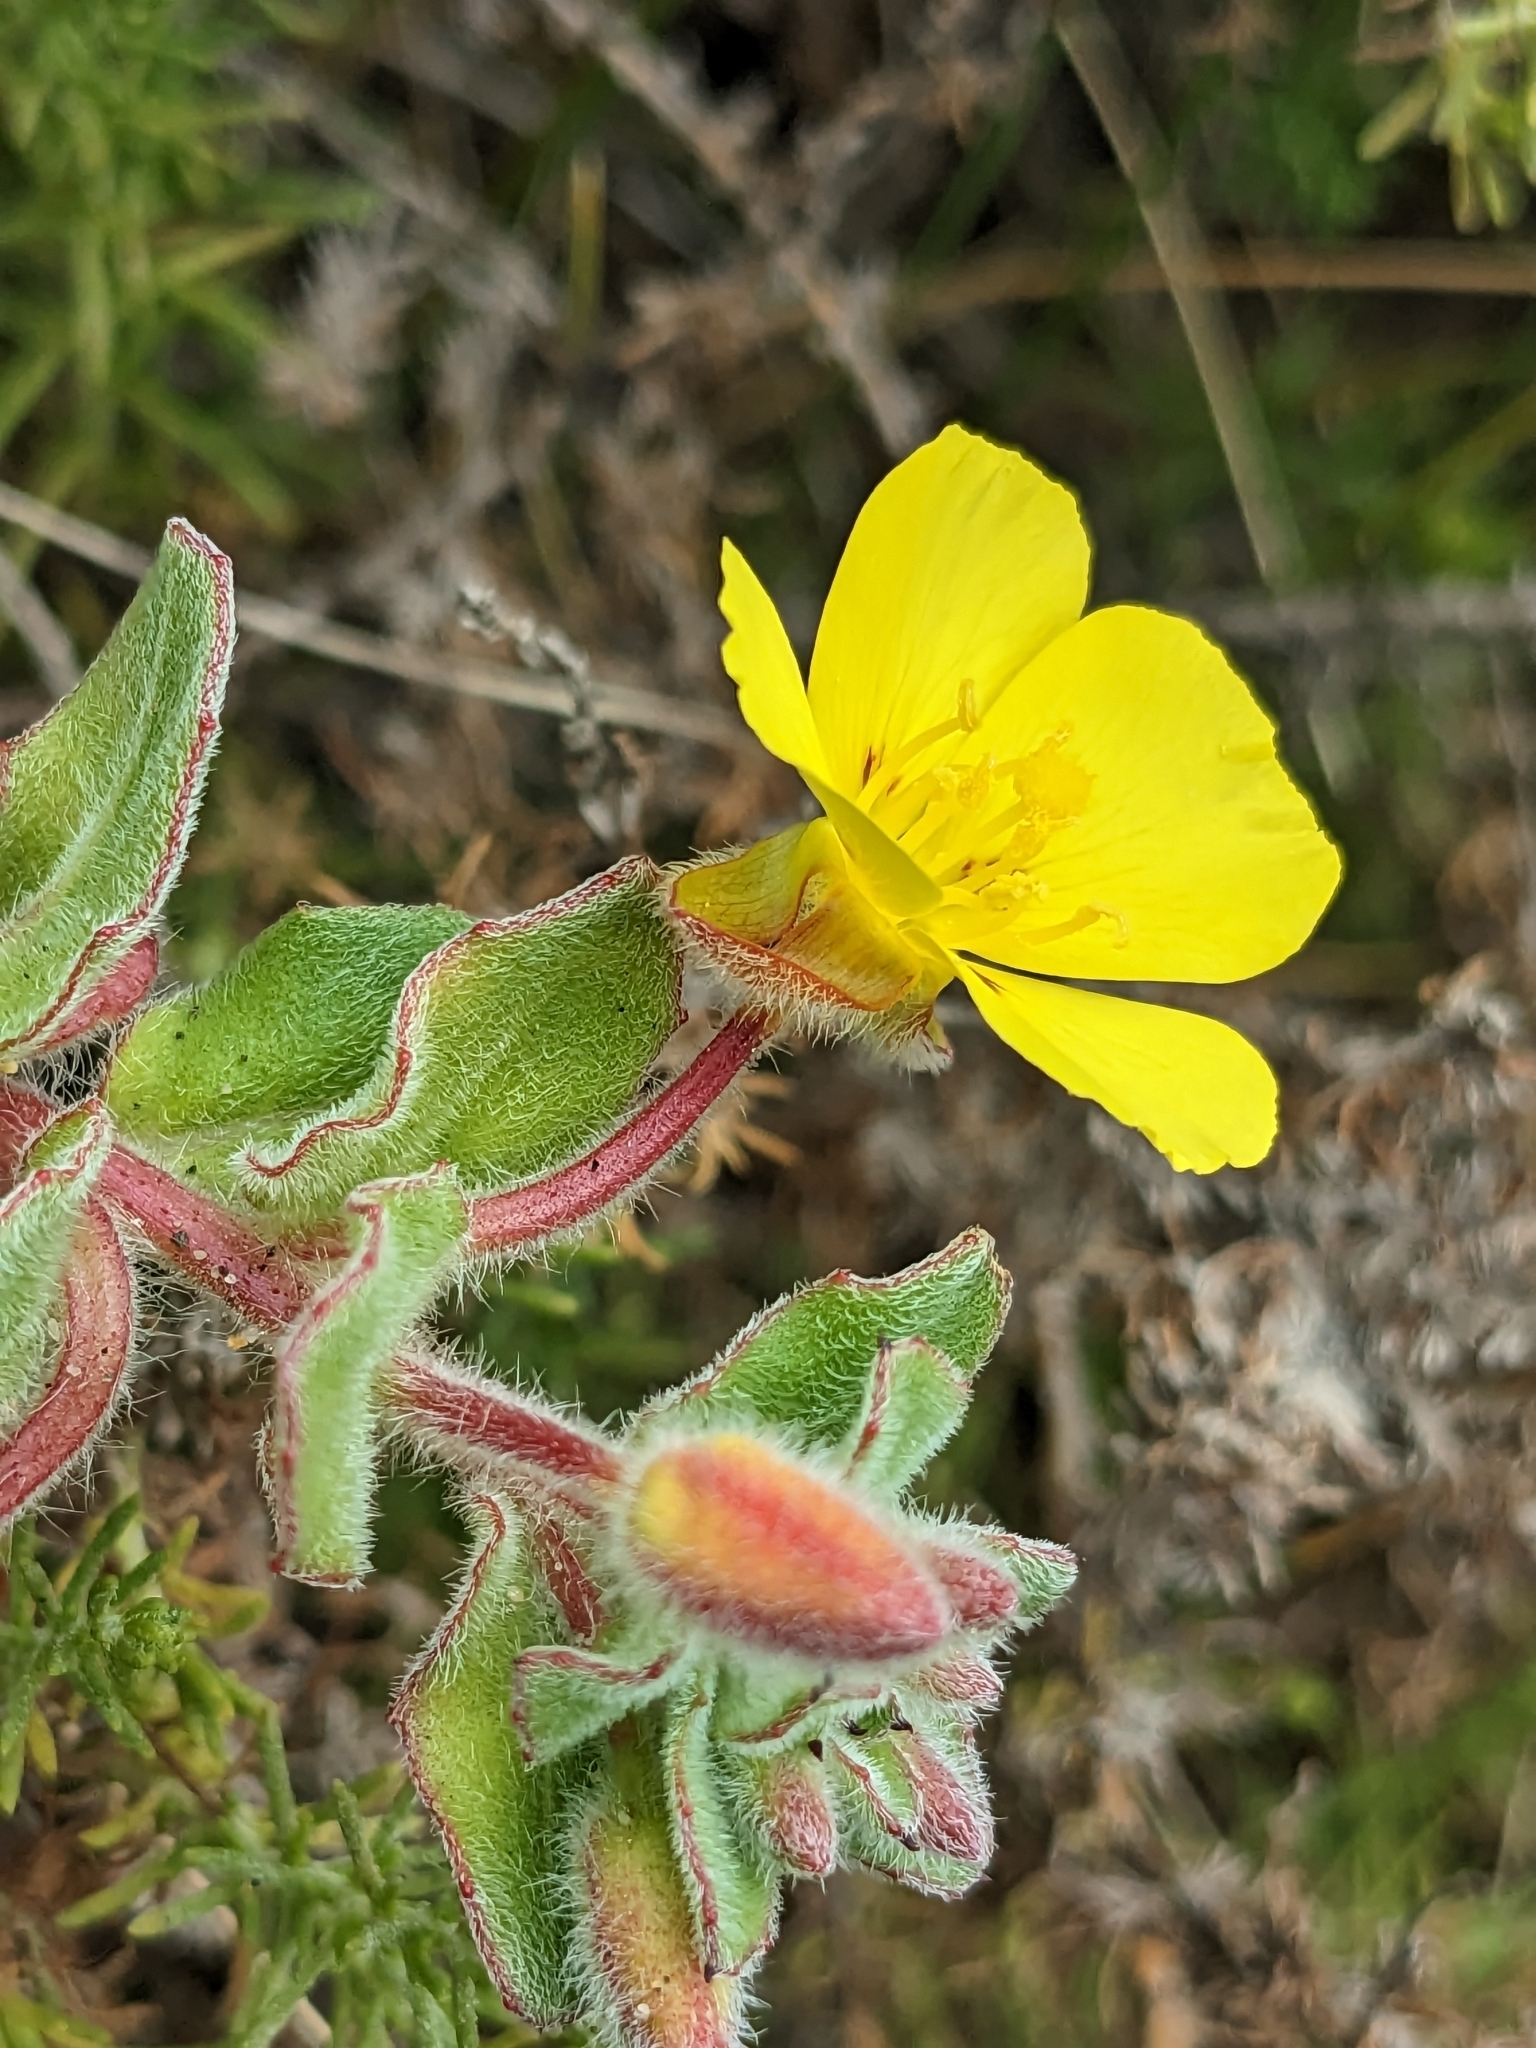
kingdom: Plantae
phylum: Tracheophyta
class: Magnoliopsida
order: Myrtales
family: Onagraceae
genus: Camissoniopsis
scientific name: Camissoniopsis cheiranthifolia
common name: Beach suncup
